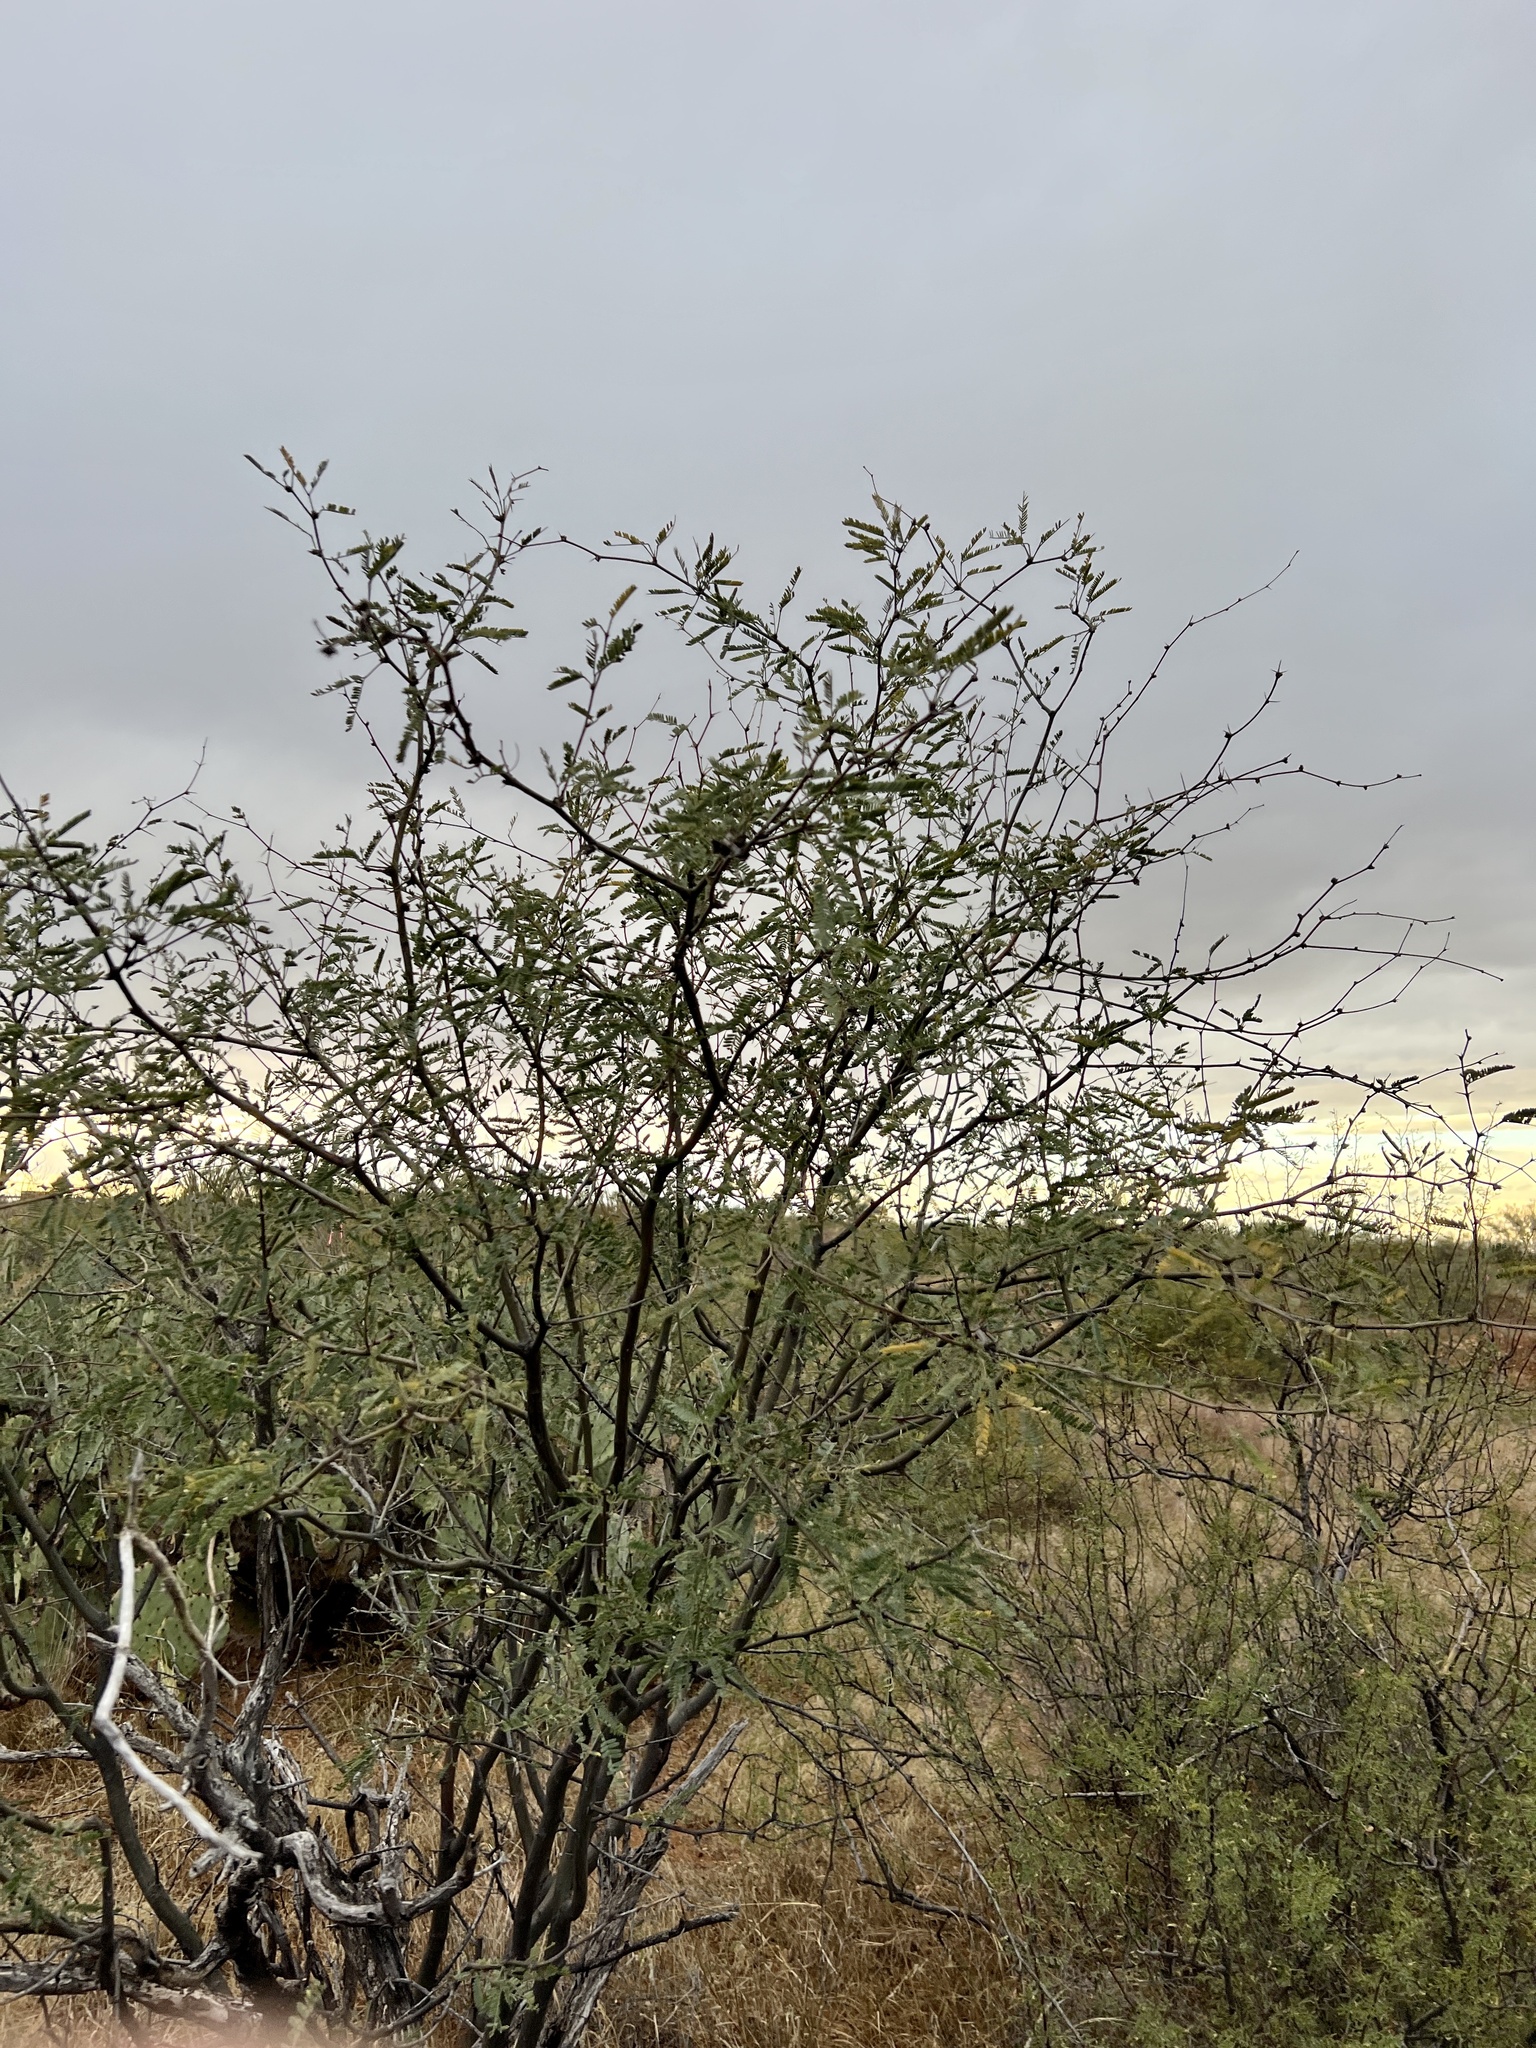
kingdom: Plantae
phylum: Tracheophyta
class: Magnoliopsida
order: Fabales
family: Fabaceae
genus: Prosopis
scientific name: Prosopis velutina
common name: Velvet mesquite
